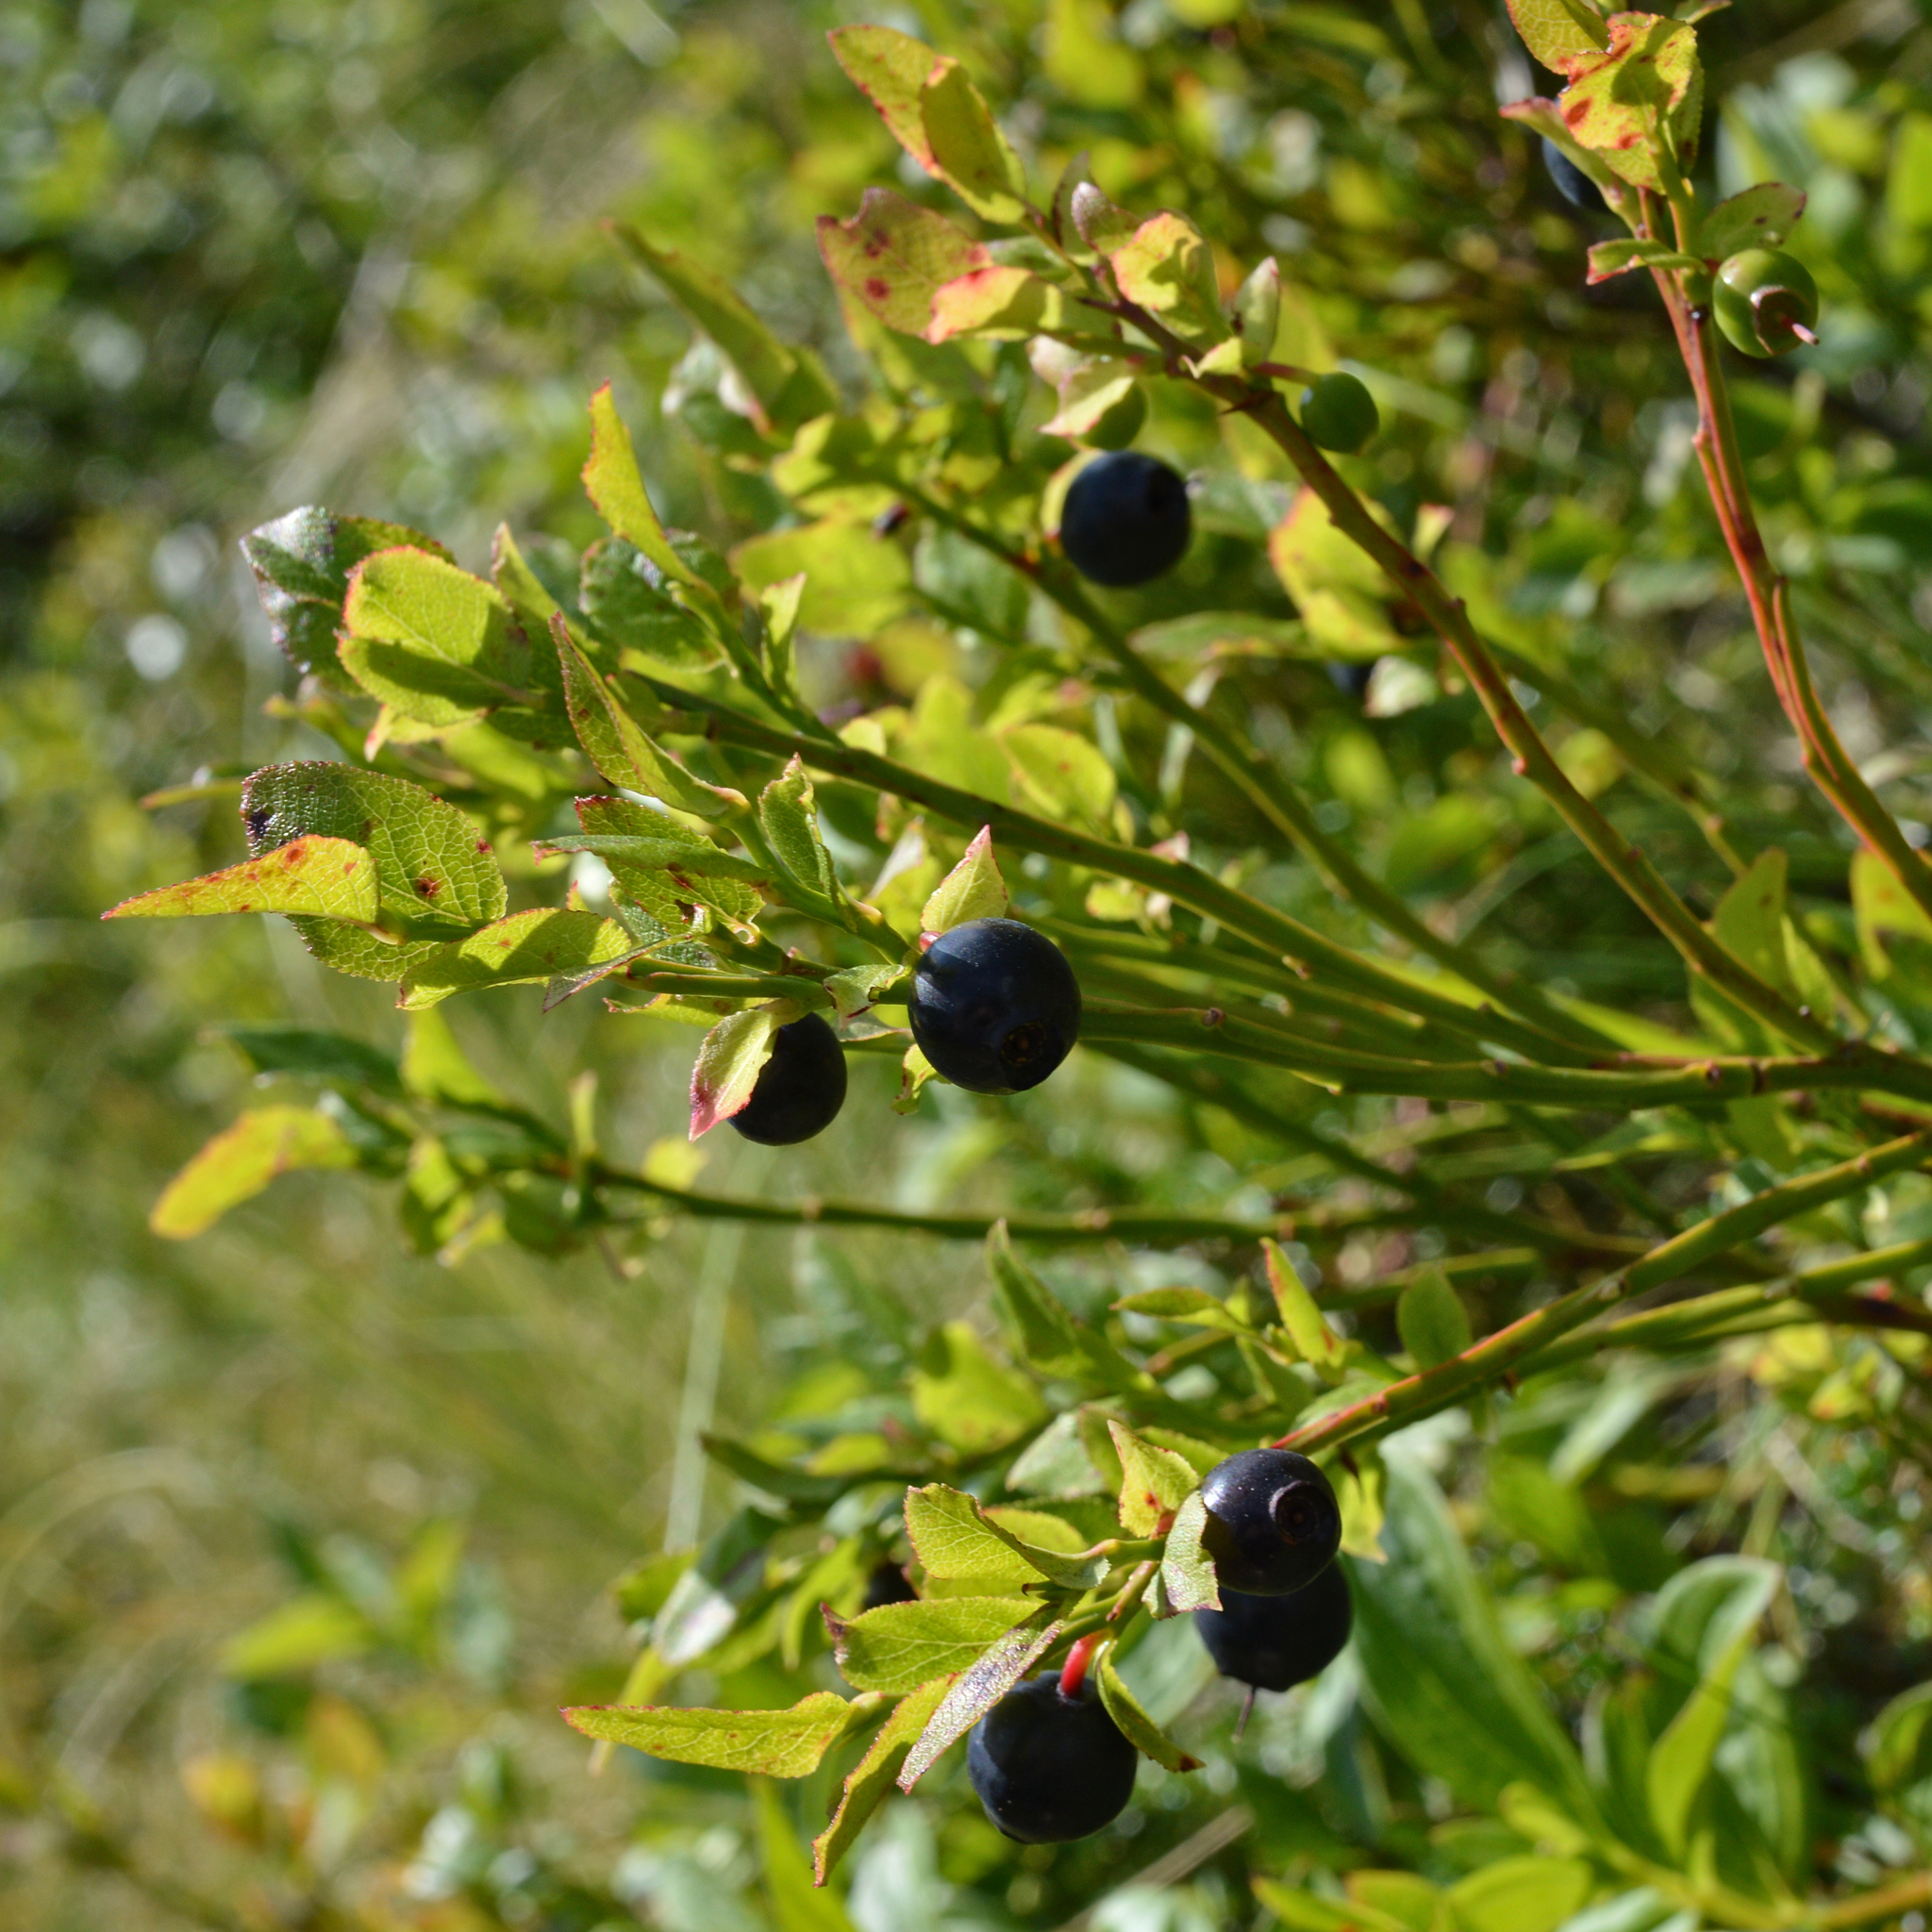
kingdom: Plantae
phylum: Tracheophyta
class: Magnoliopsida
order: Ericales
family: Ericaceae
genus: Vaccinium
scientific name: Vaccinium myrtillus
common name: Bilberry
